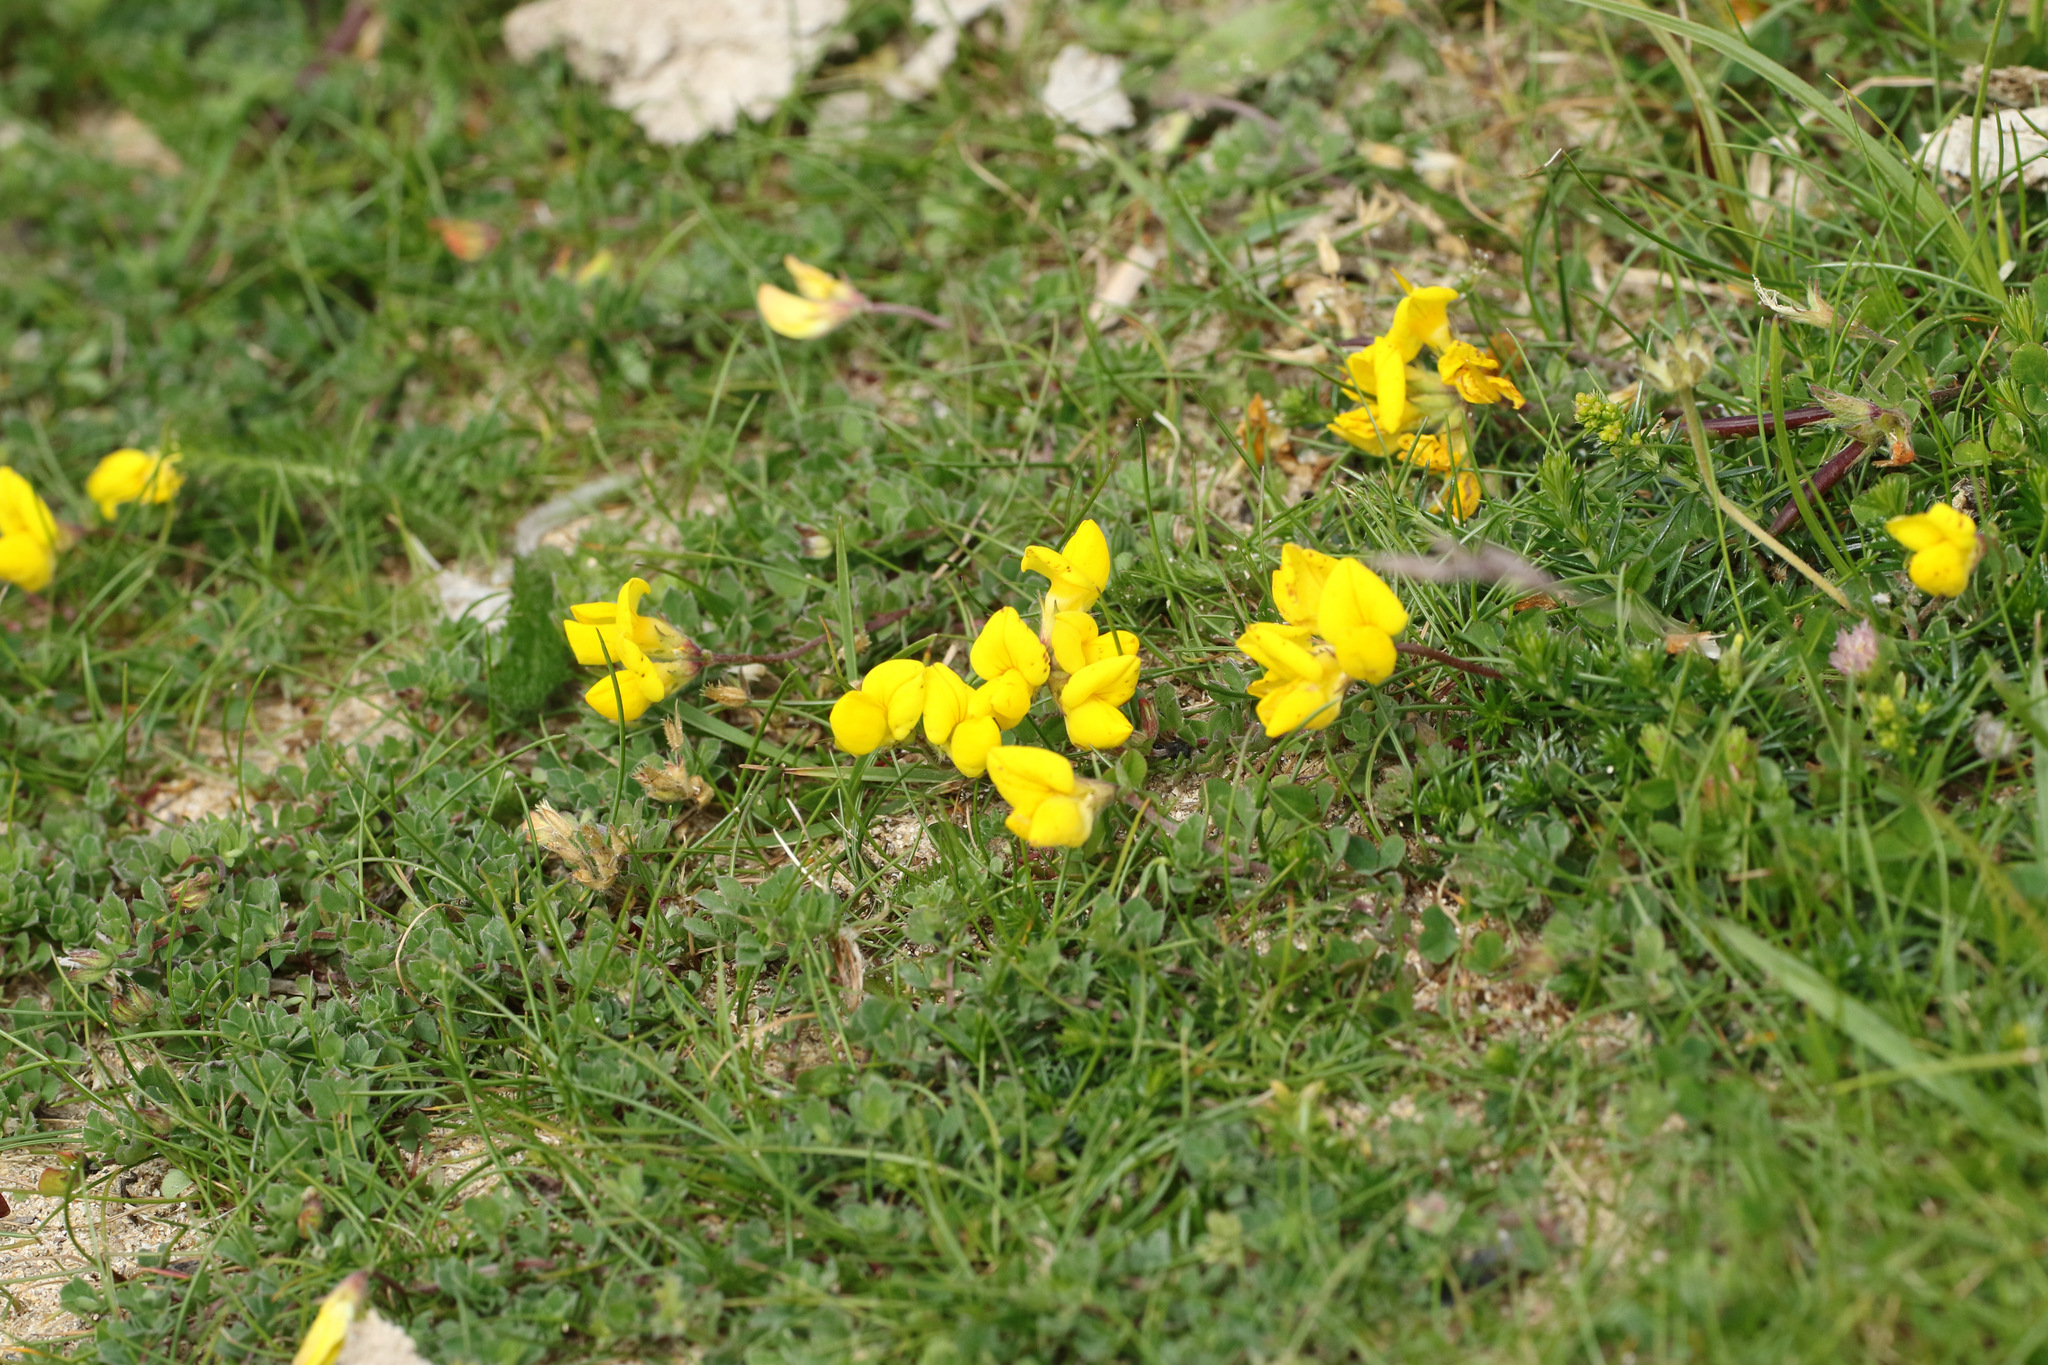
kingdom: Plantae
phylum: Tracheophyta
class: Magnoliopsida
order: Fabales
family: Fabaceae
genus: Lotus
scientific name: Lotus corniculatus
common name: Common bird's-foot-trefoil
